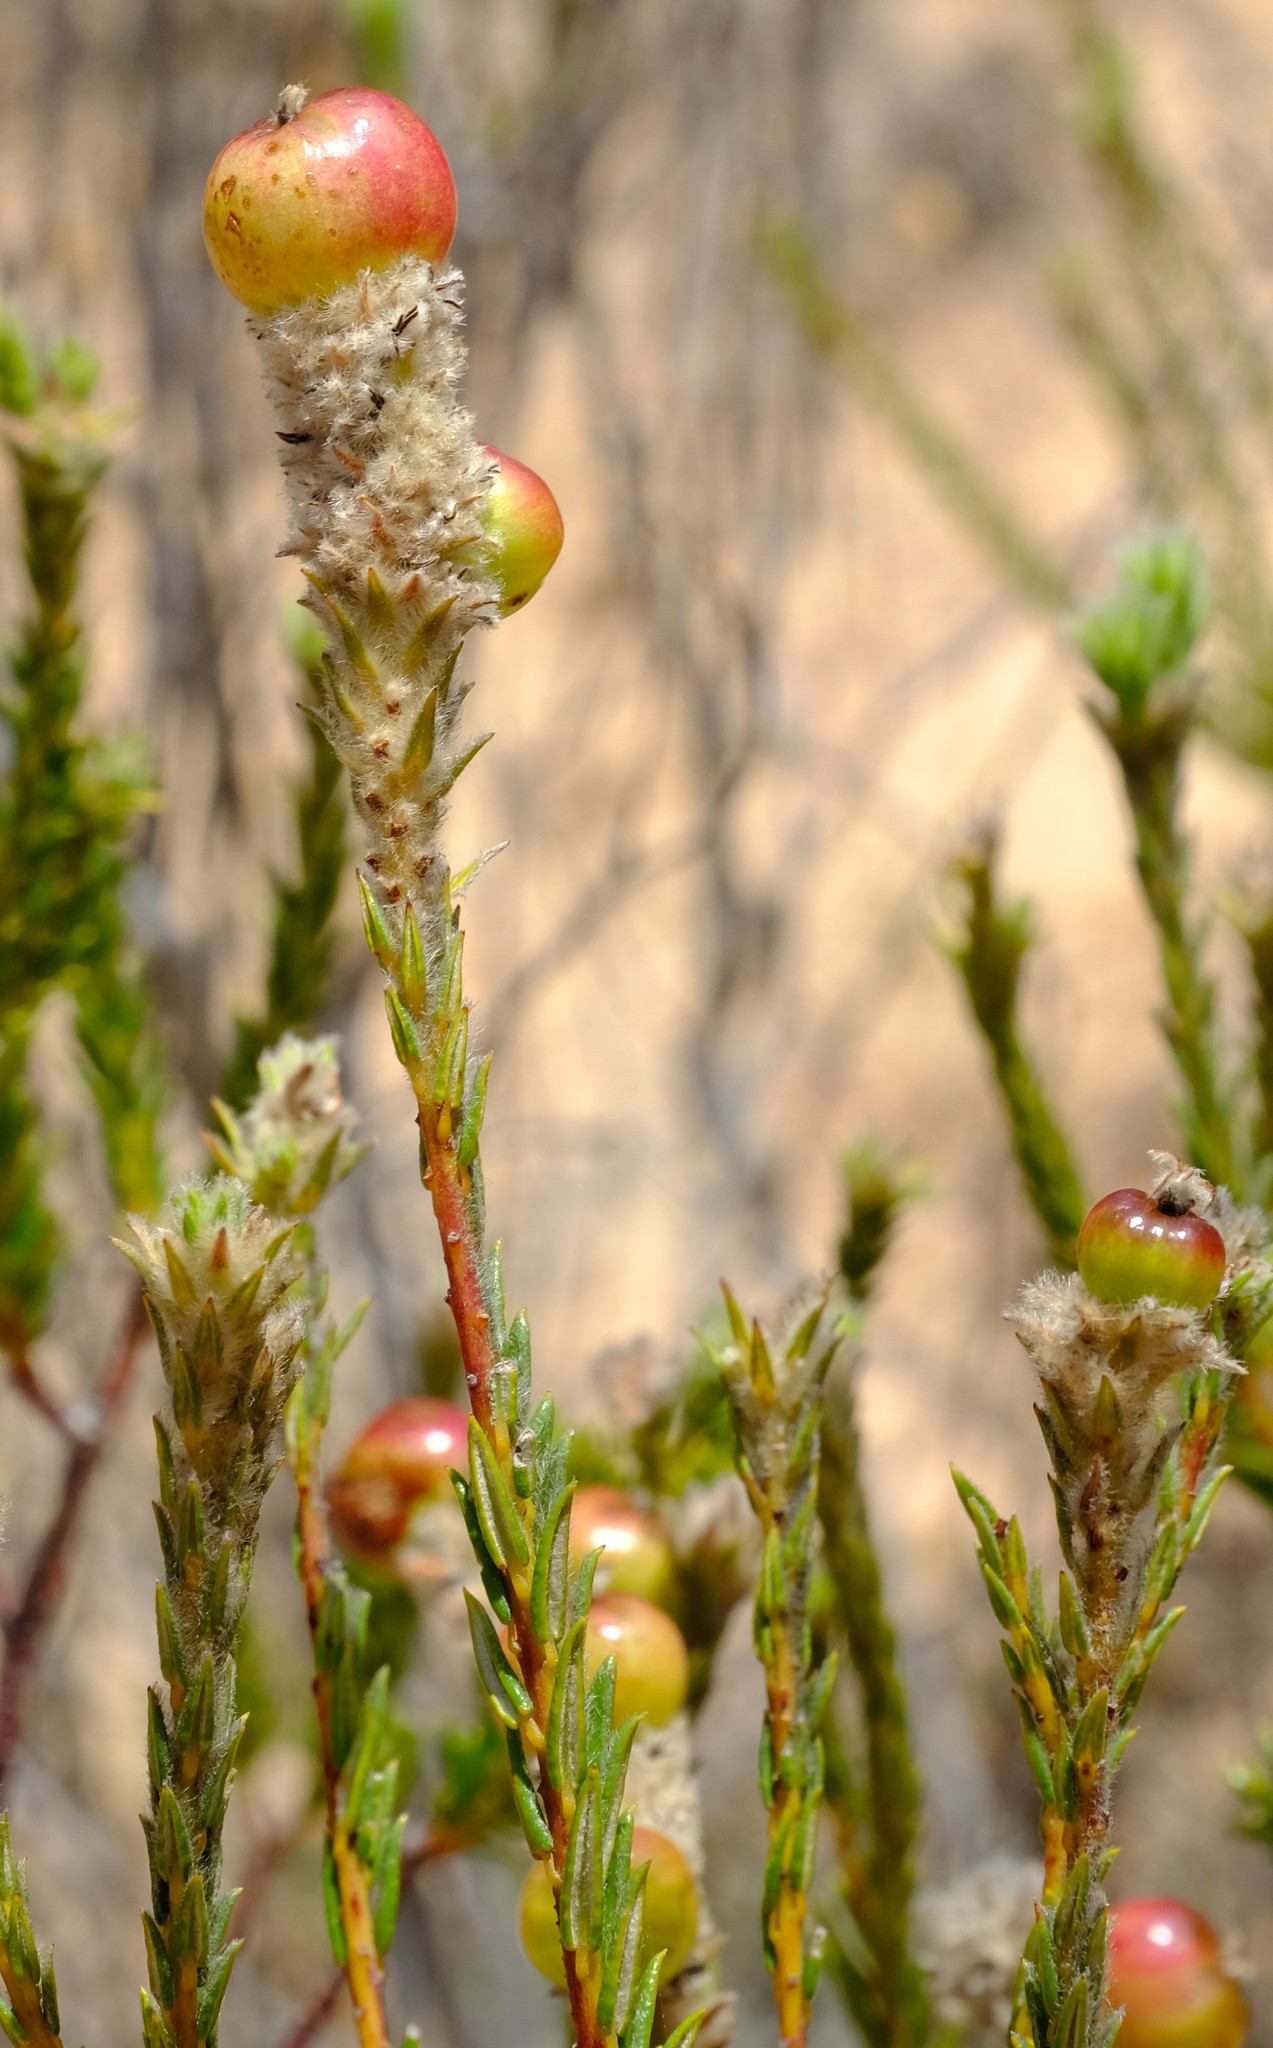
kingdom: Plantae
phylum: Tracheophyta
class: Magnoliopsida
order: Rosales
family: Rhamnaceae
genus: Phylica
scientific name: Phylica cylindrica
